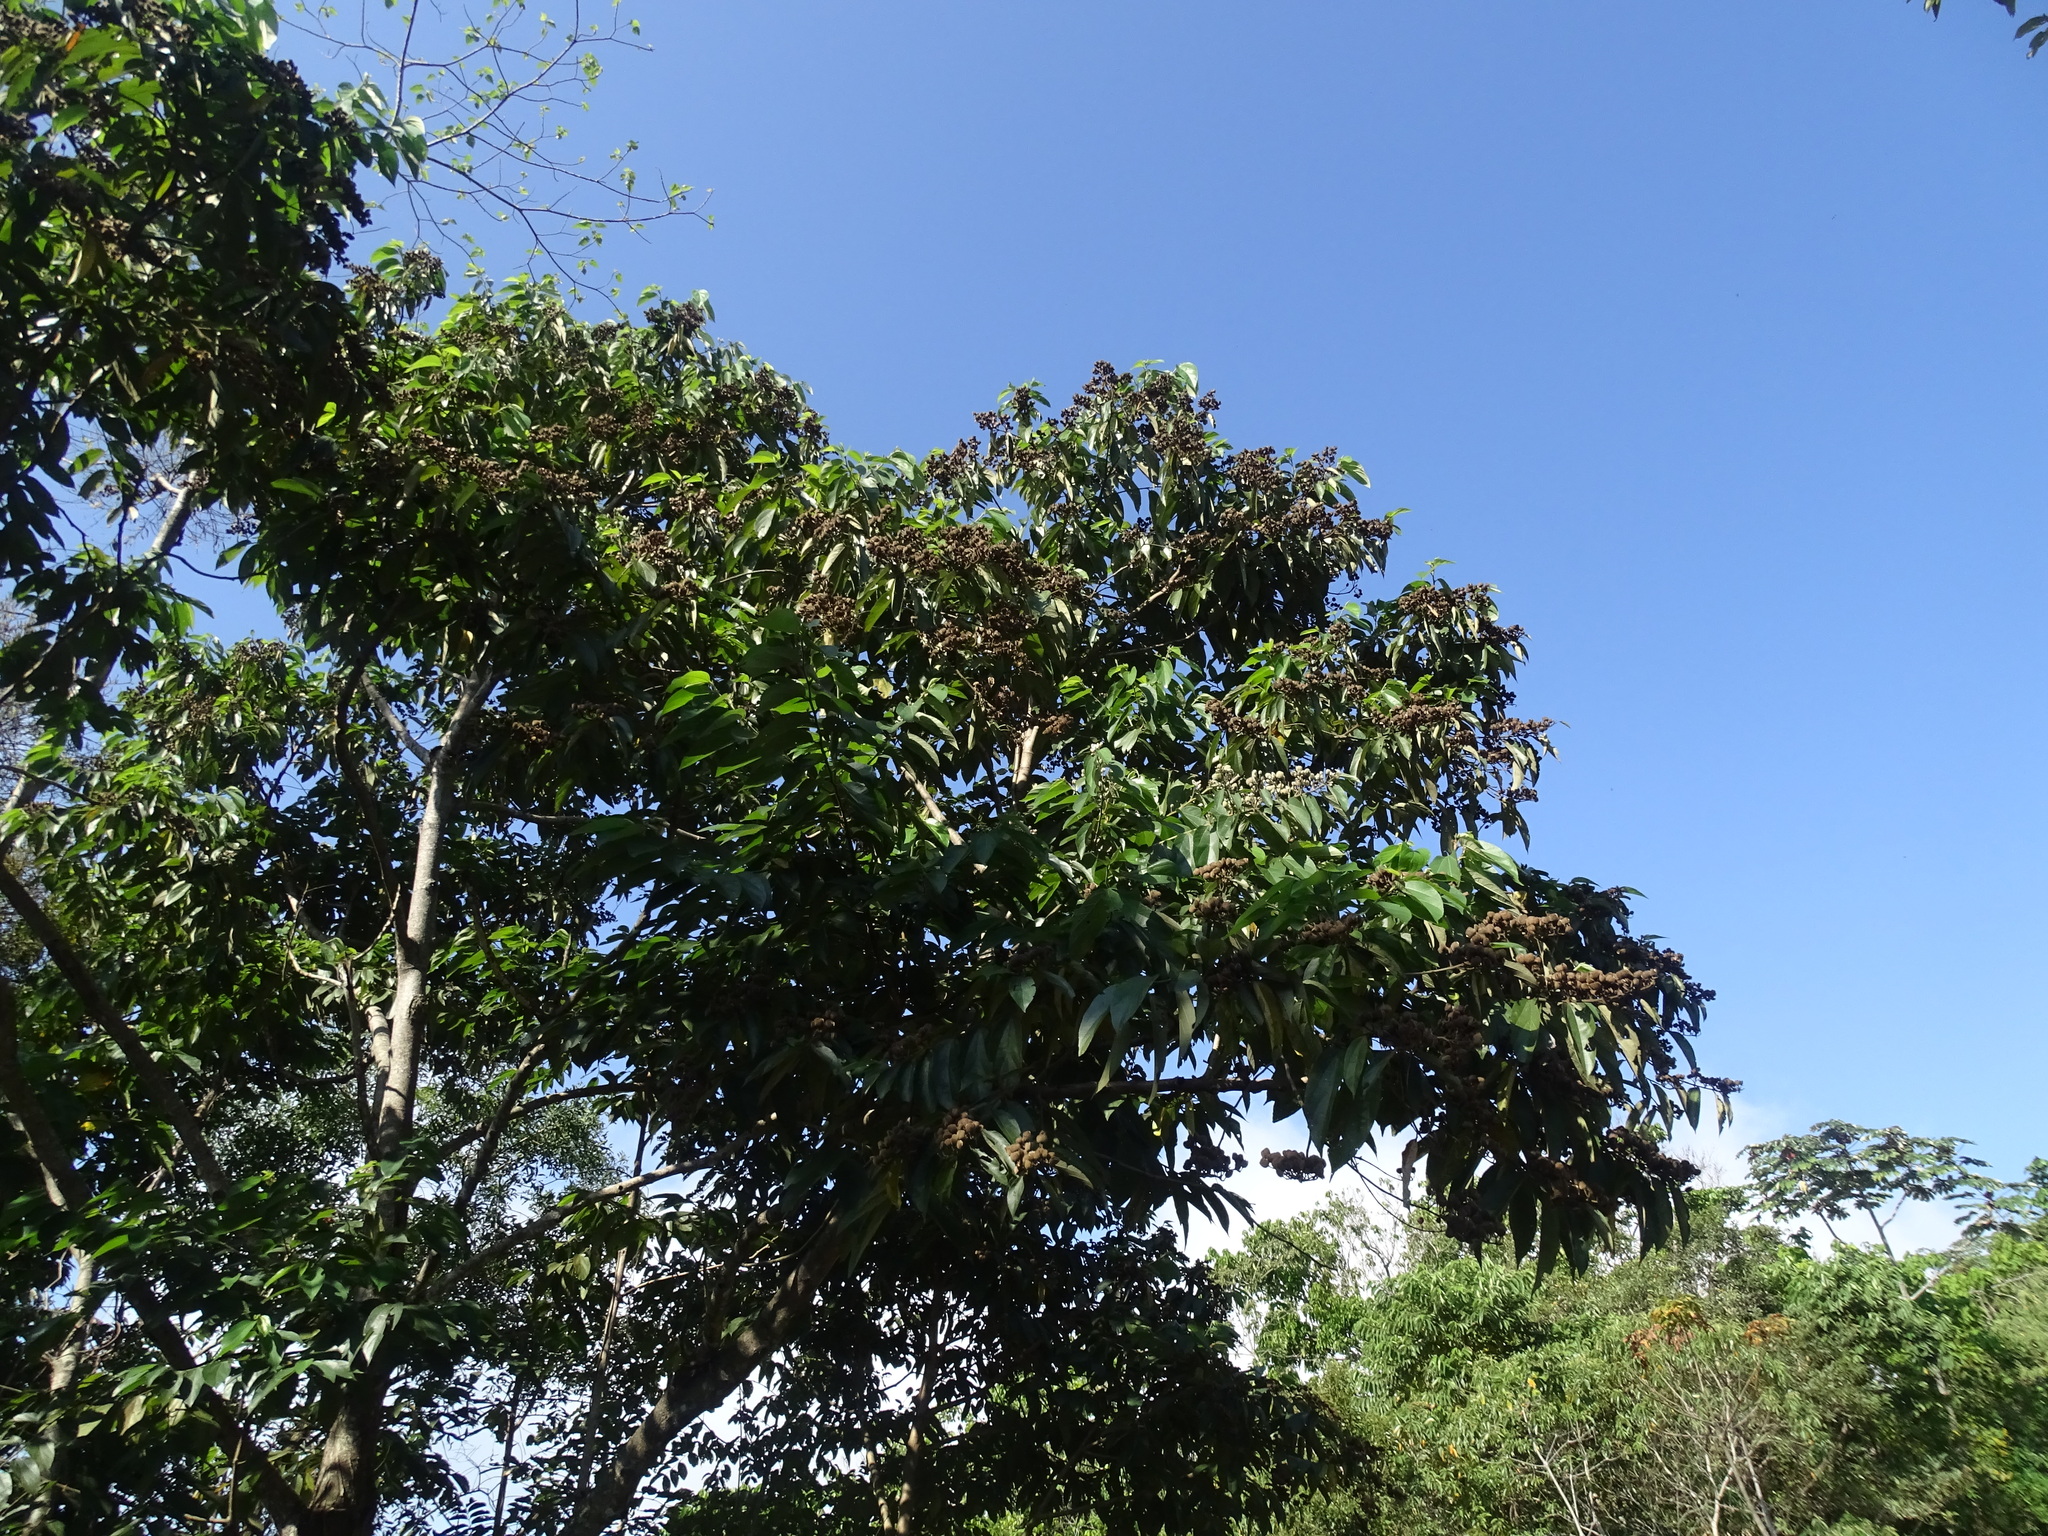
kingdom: Plantae
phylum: Tracheophyta
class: Magnoliopsida
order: Malvales
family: Malvaceae
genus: Trichospermum
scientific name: Trichospermum mexicanum
